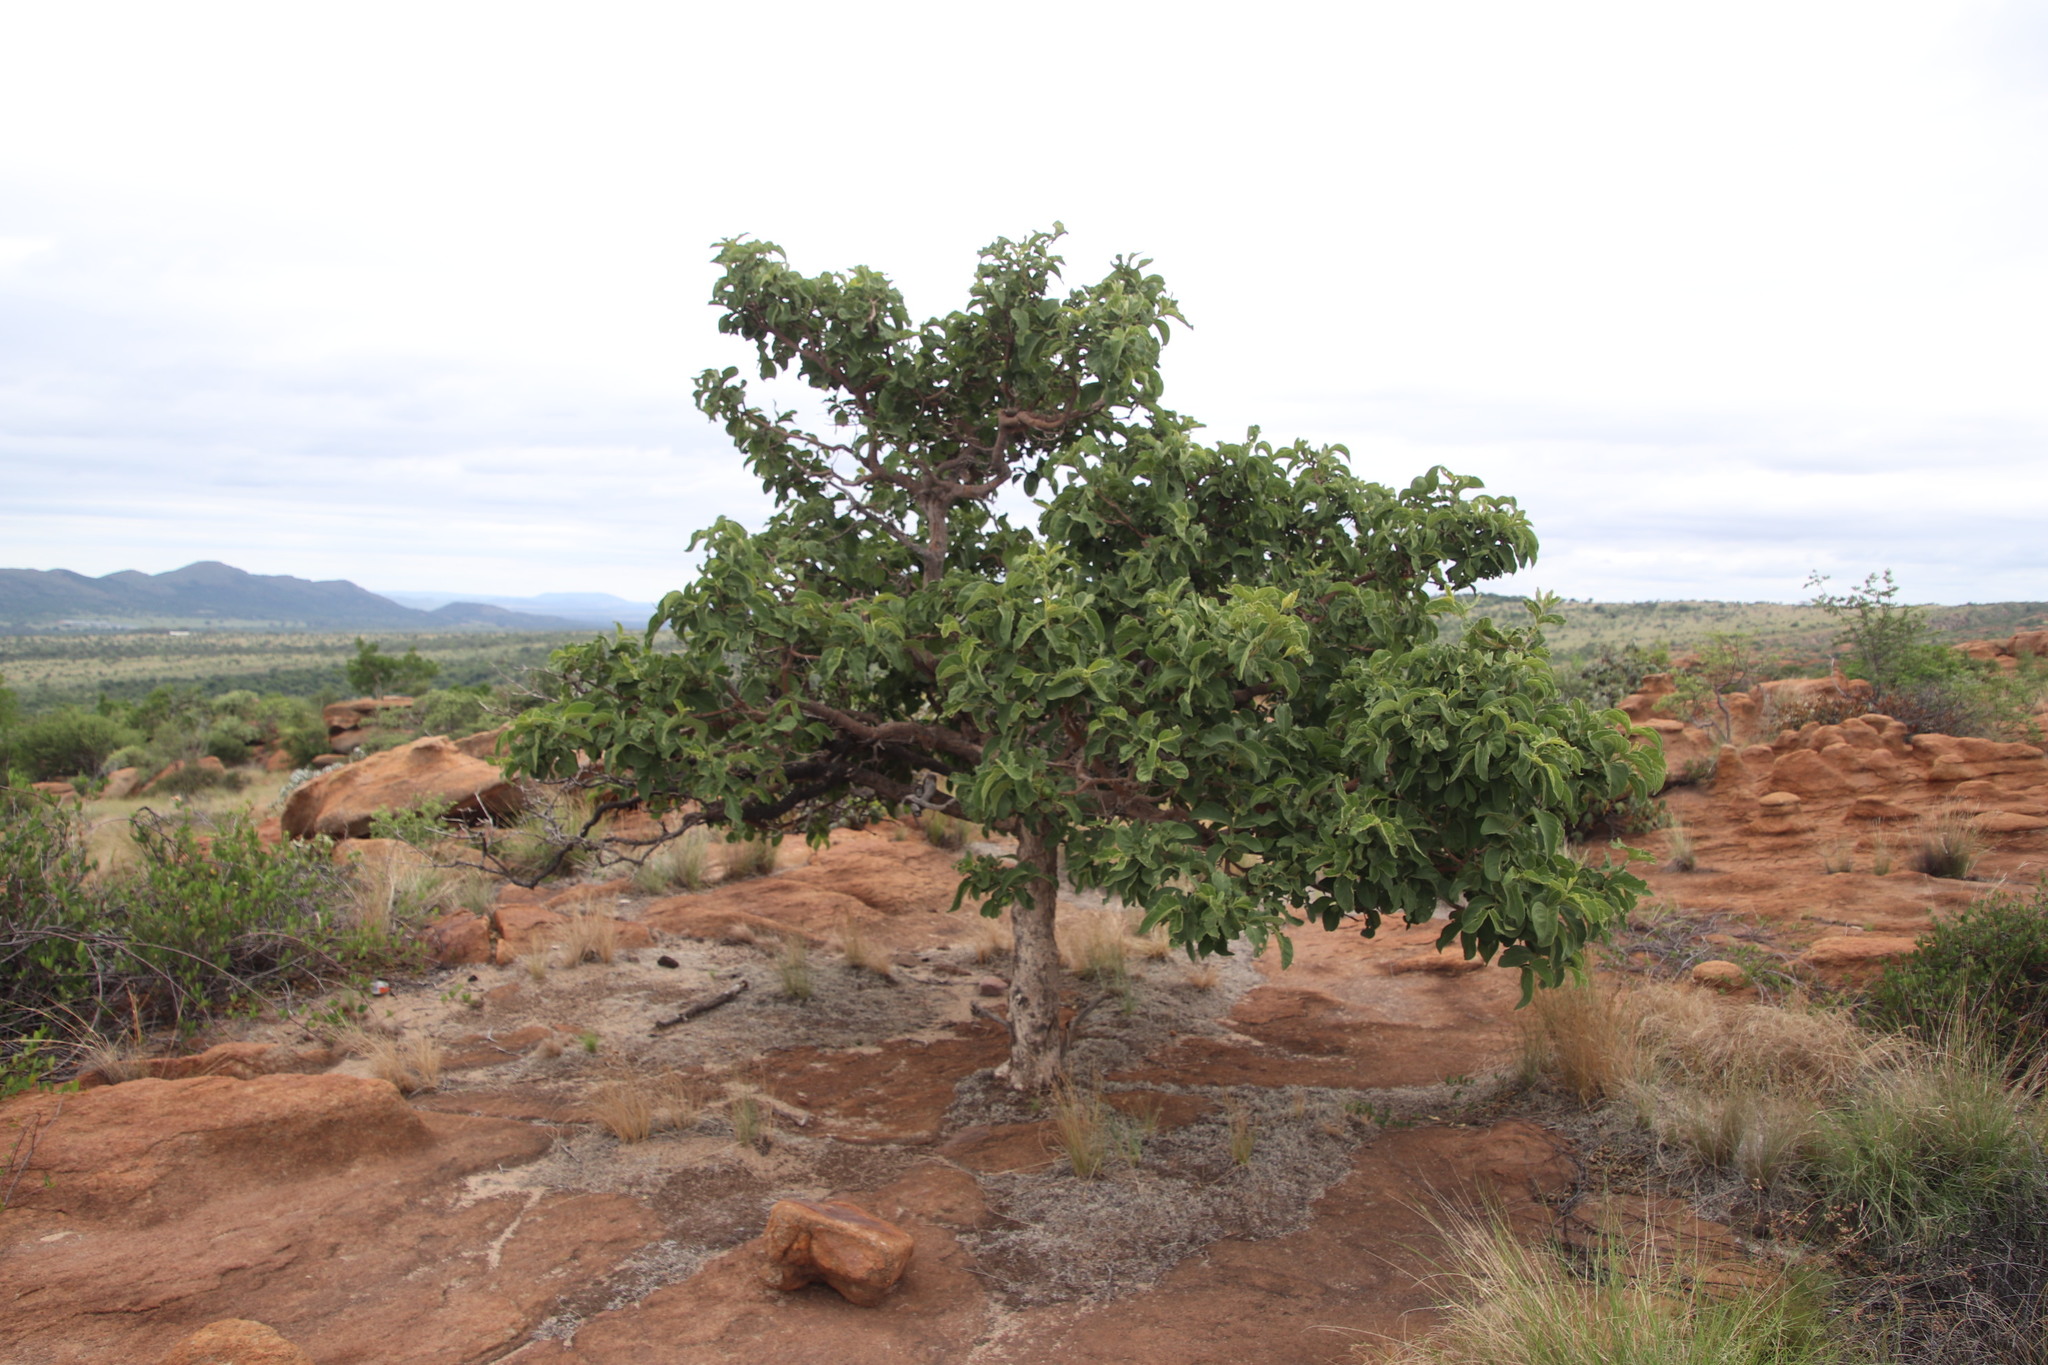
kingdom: Plantae
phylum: Tracheophyta
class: Magnoliopsida
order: Gentianales
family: Rubiaceae
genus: Vangueria
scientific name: Vangueria infausta
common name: Medlar
